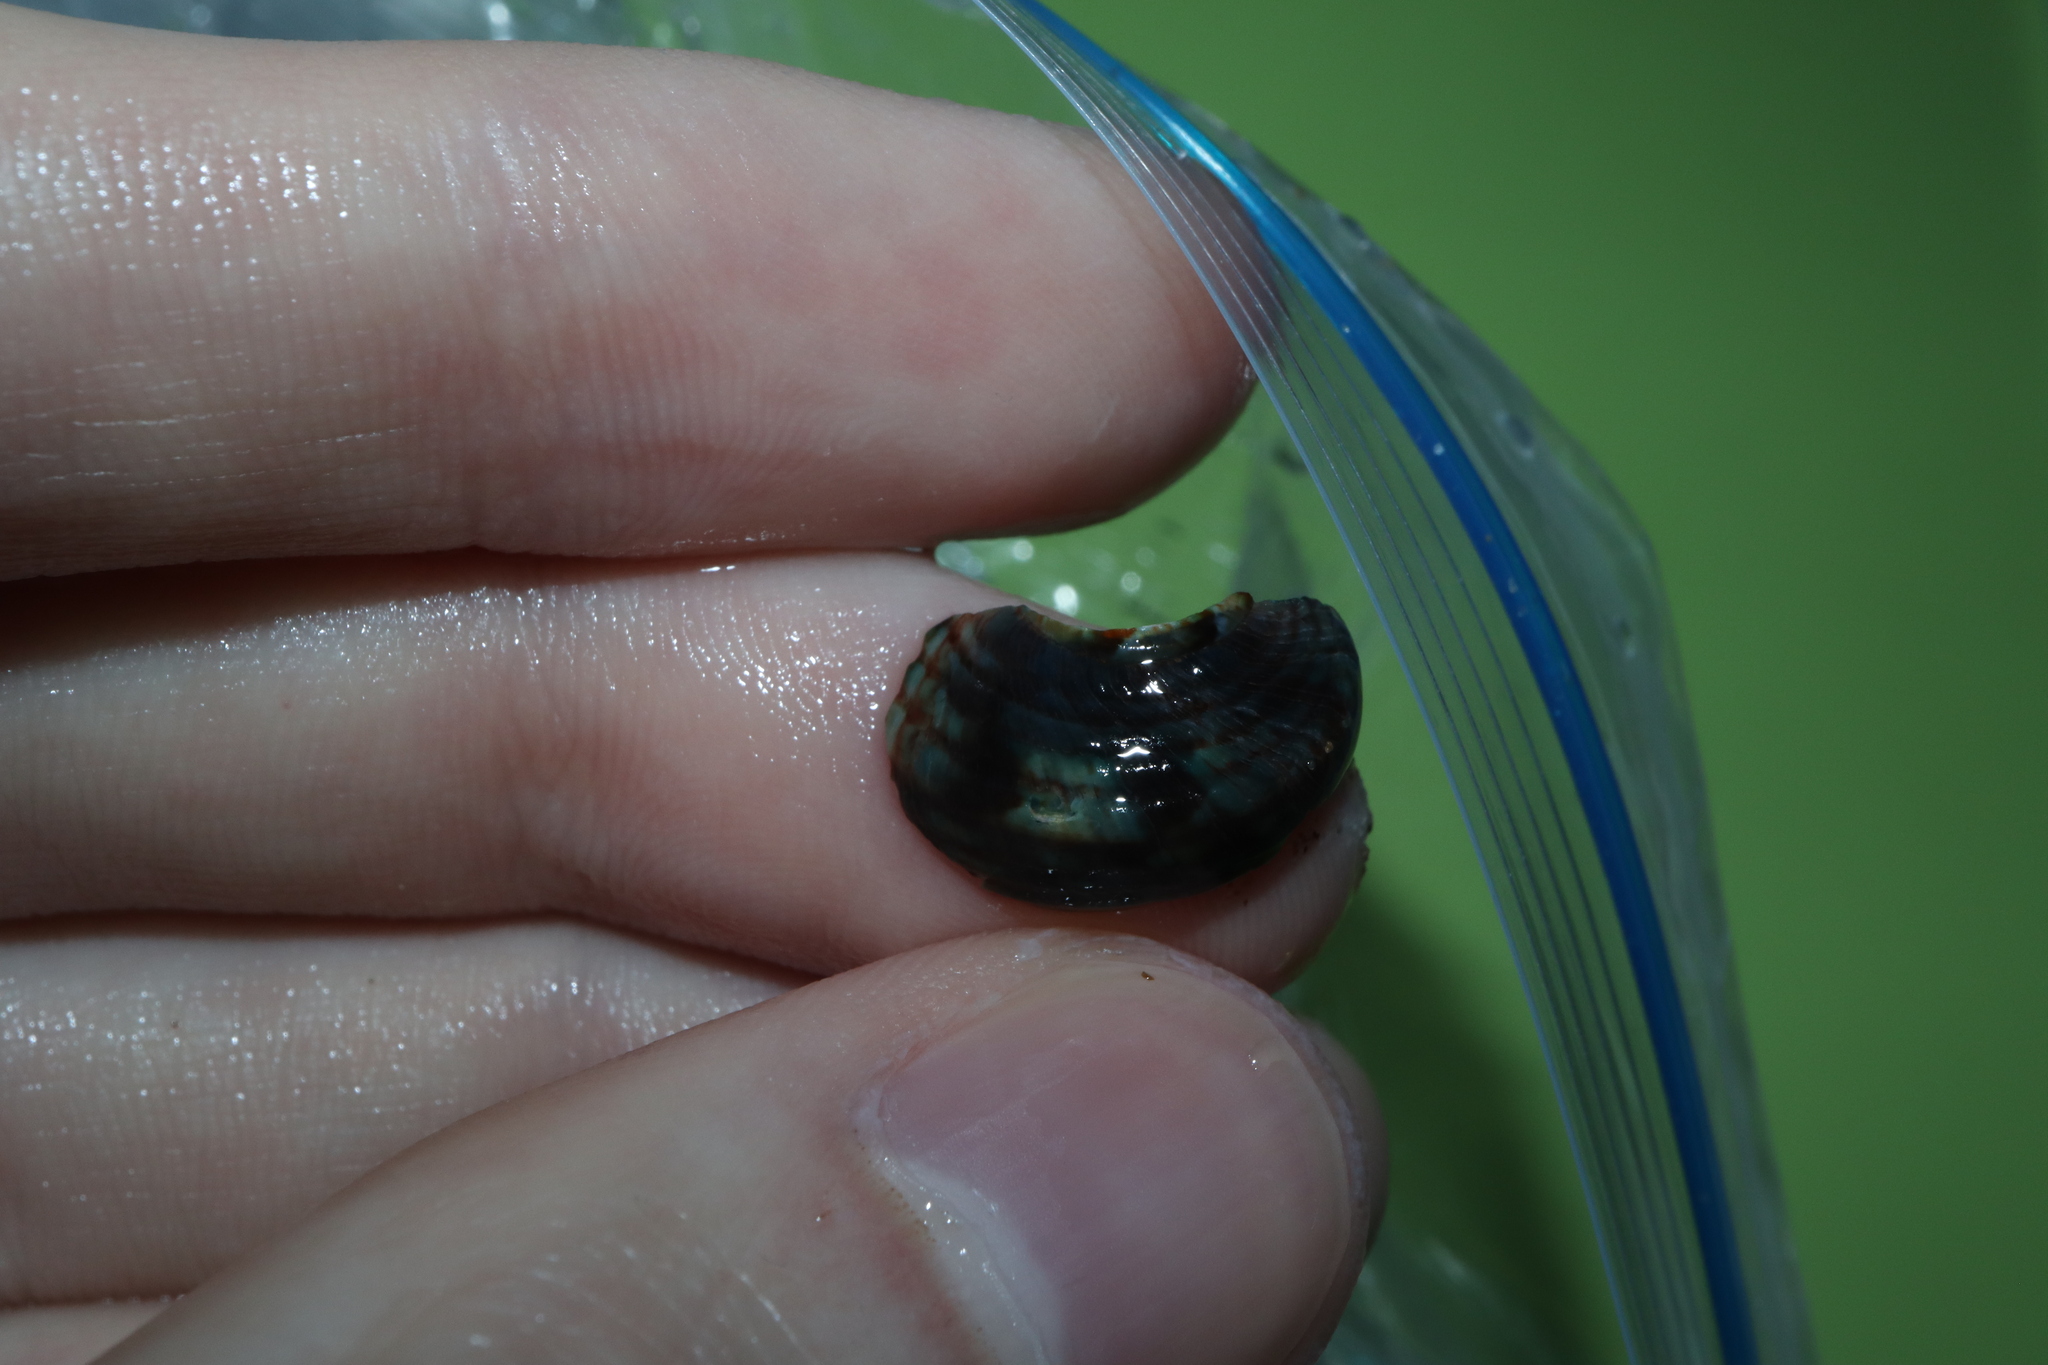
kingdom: Animalia
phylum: Mollusca
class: Gastropoda
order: Trochida
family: Turbinidae
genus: Lunella
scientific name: Lunella undulata
